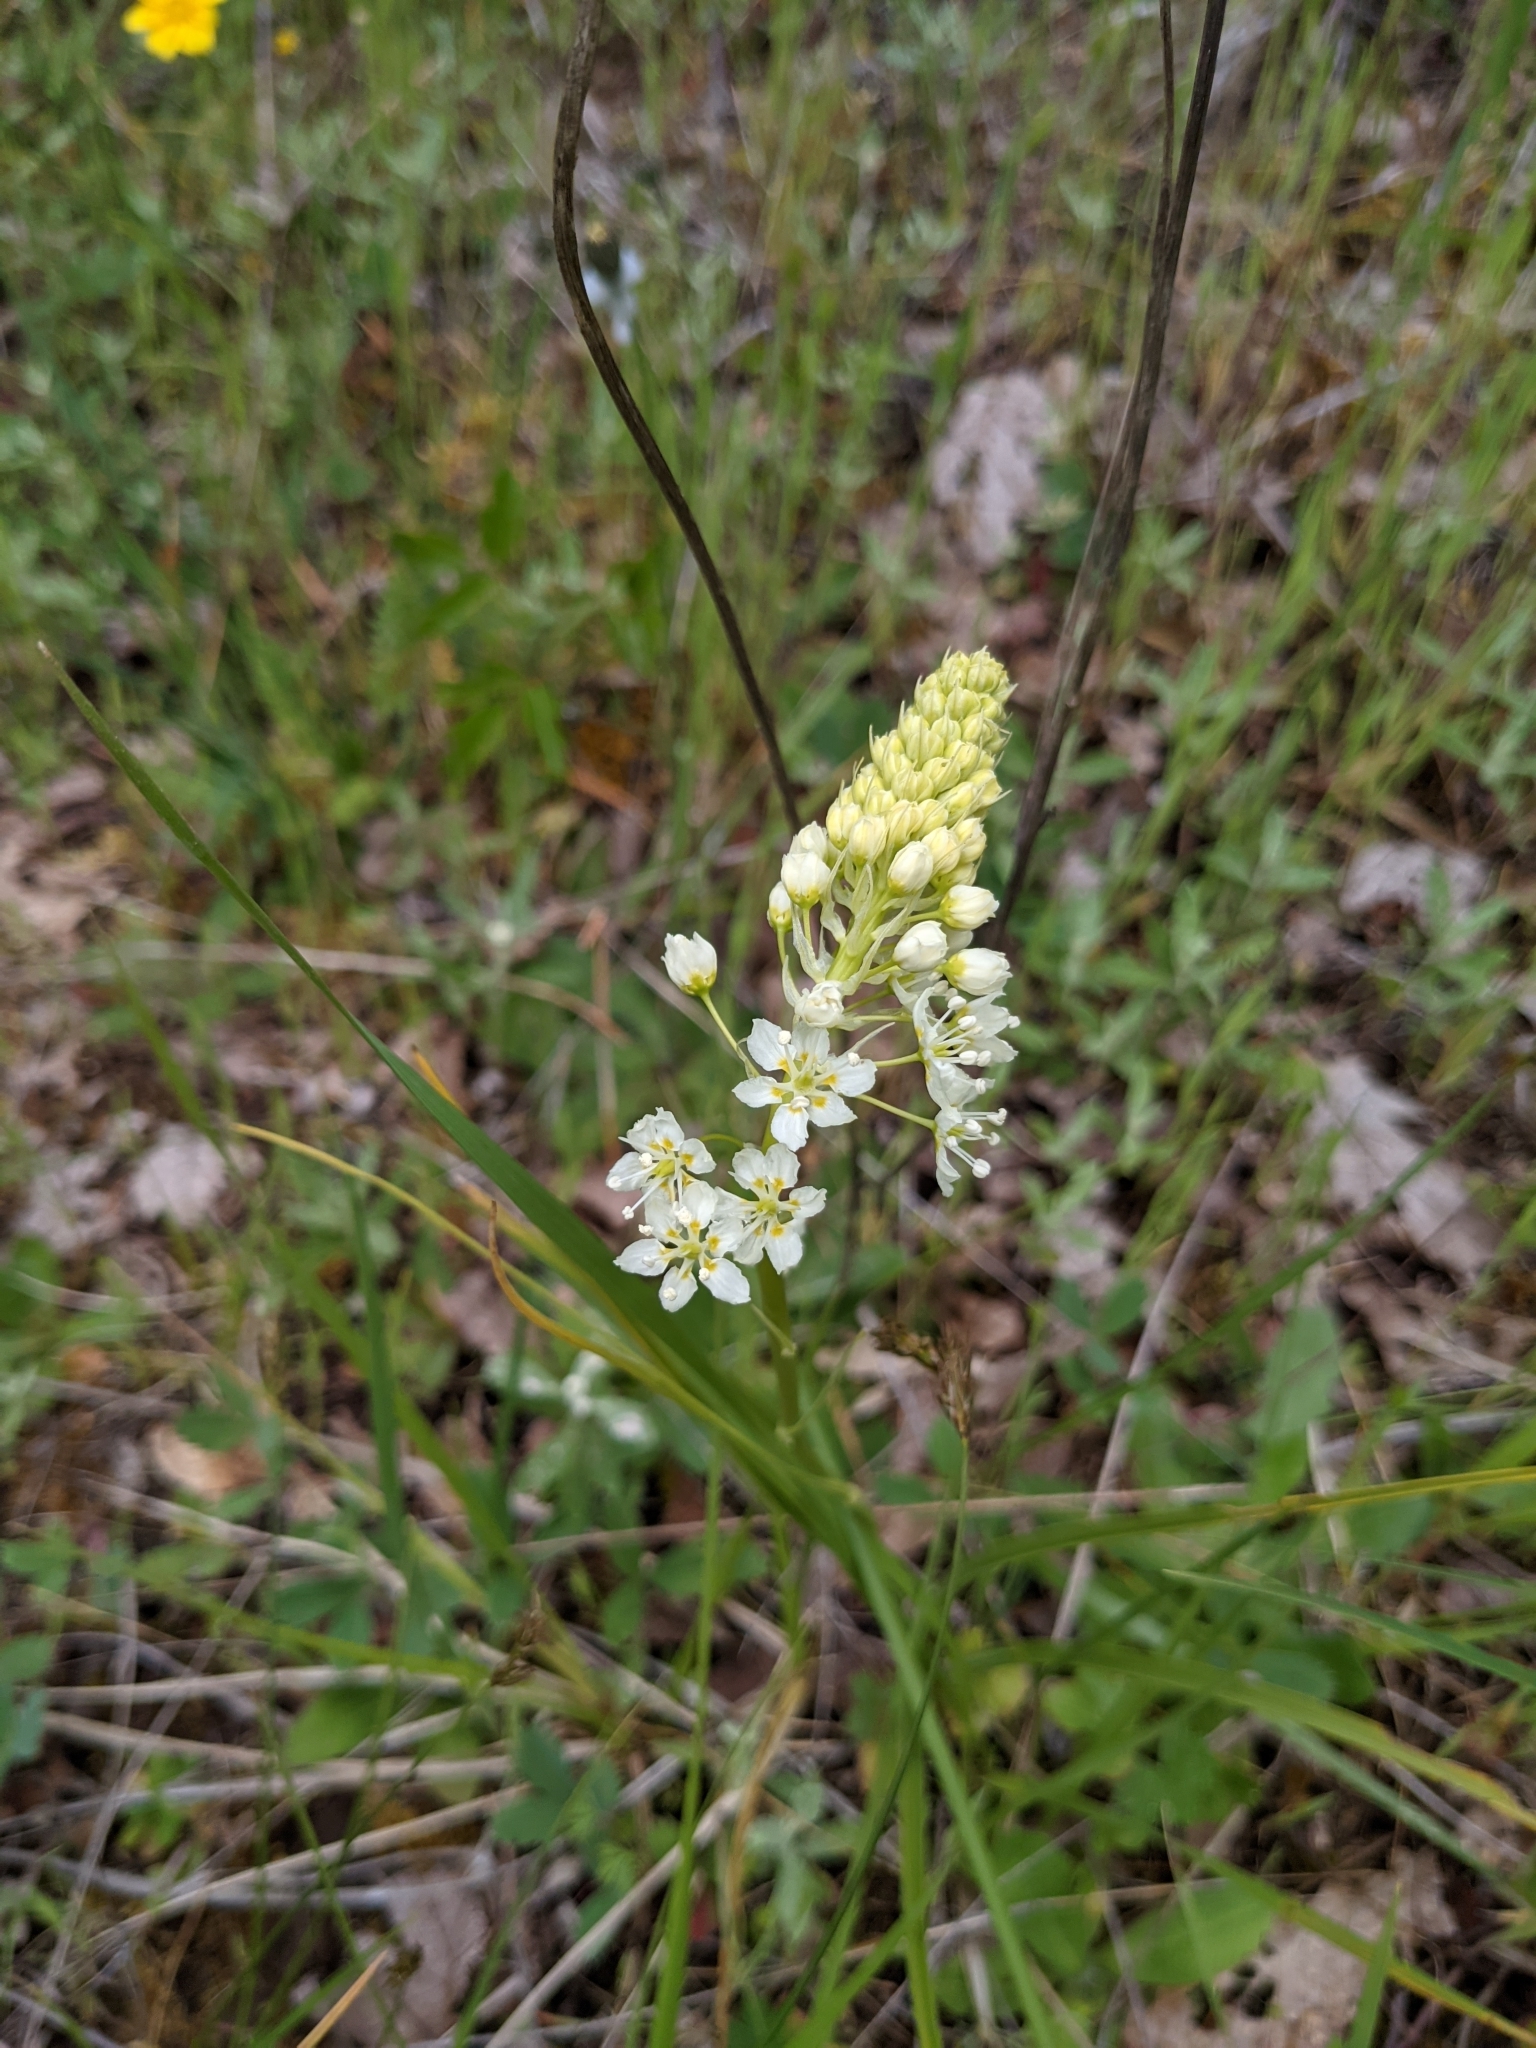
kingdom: Plantae
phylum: Tracheophyta
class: Liliopsida
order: Liliales
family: Melanthiaceae
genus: Toxicoscordion
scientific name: Toxicoscordion venenosum
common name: Meadow death camas
